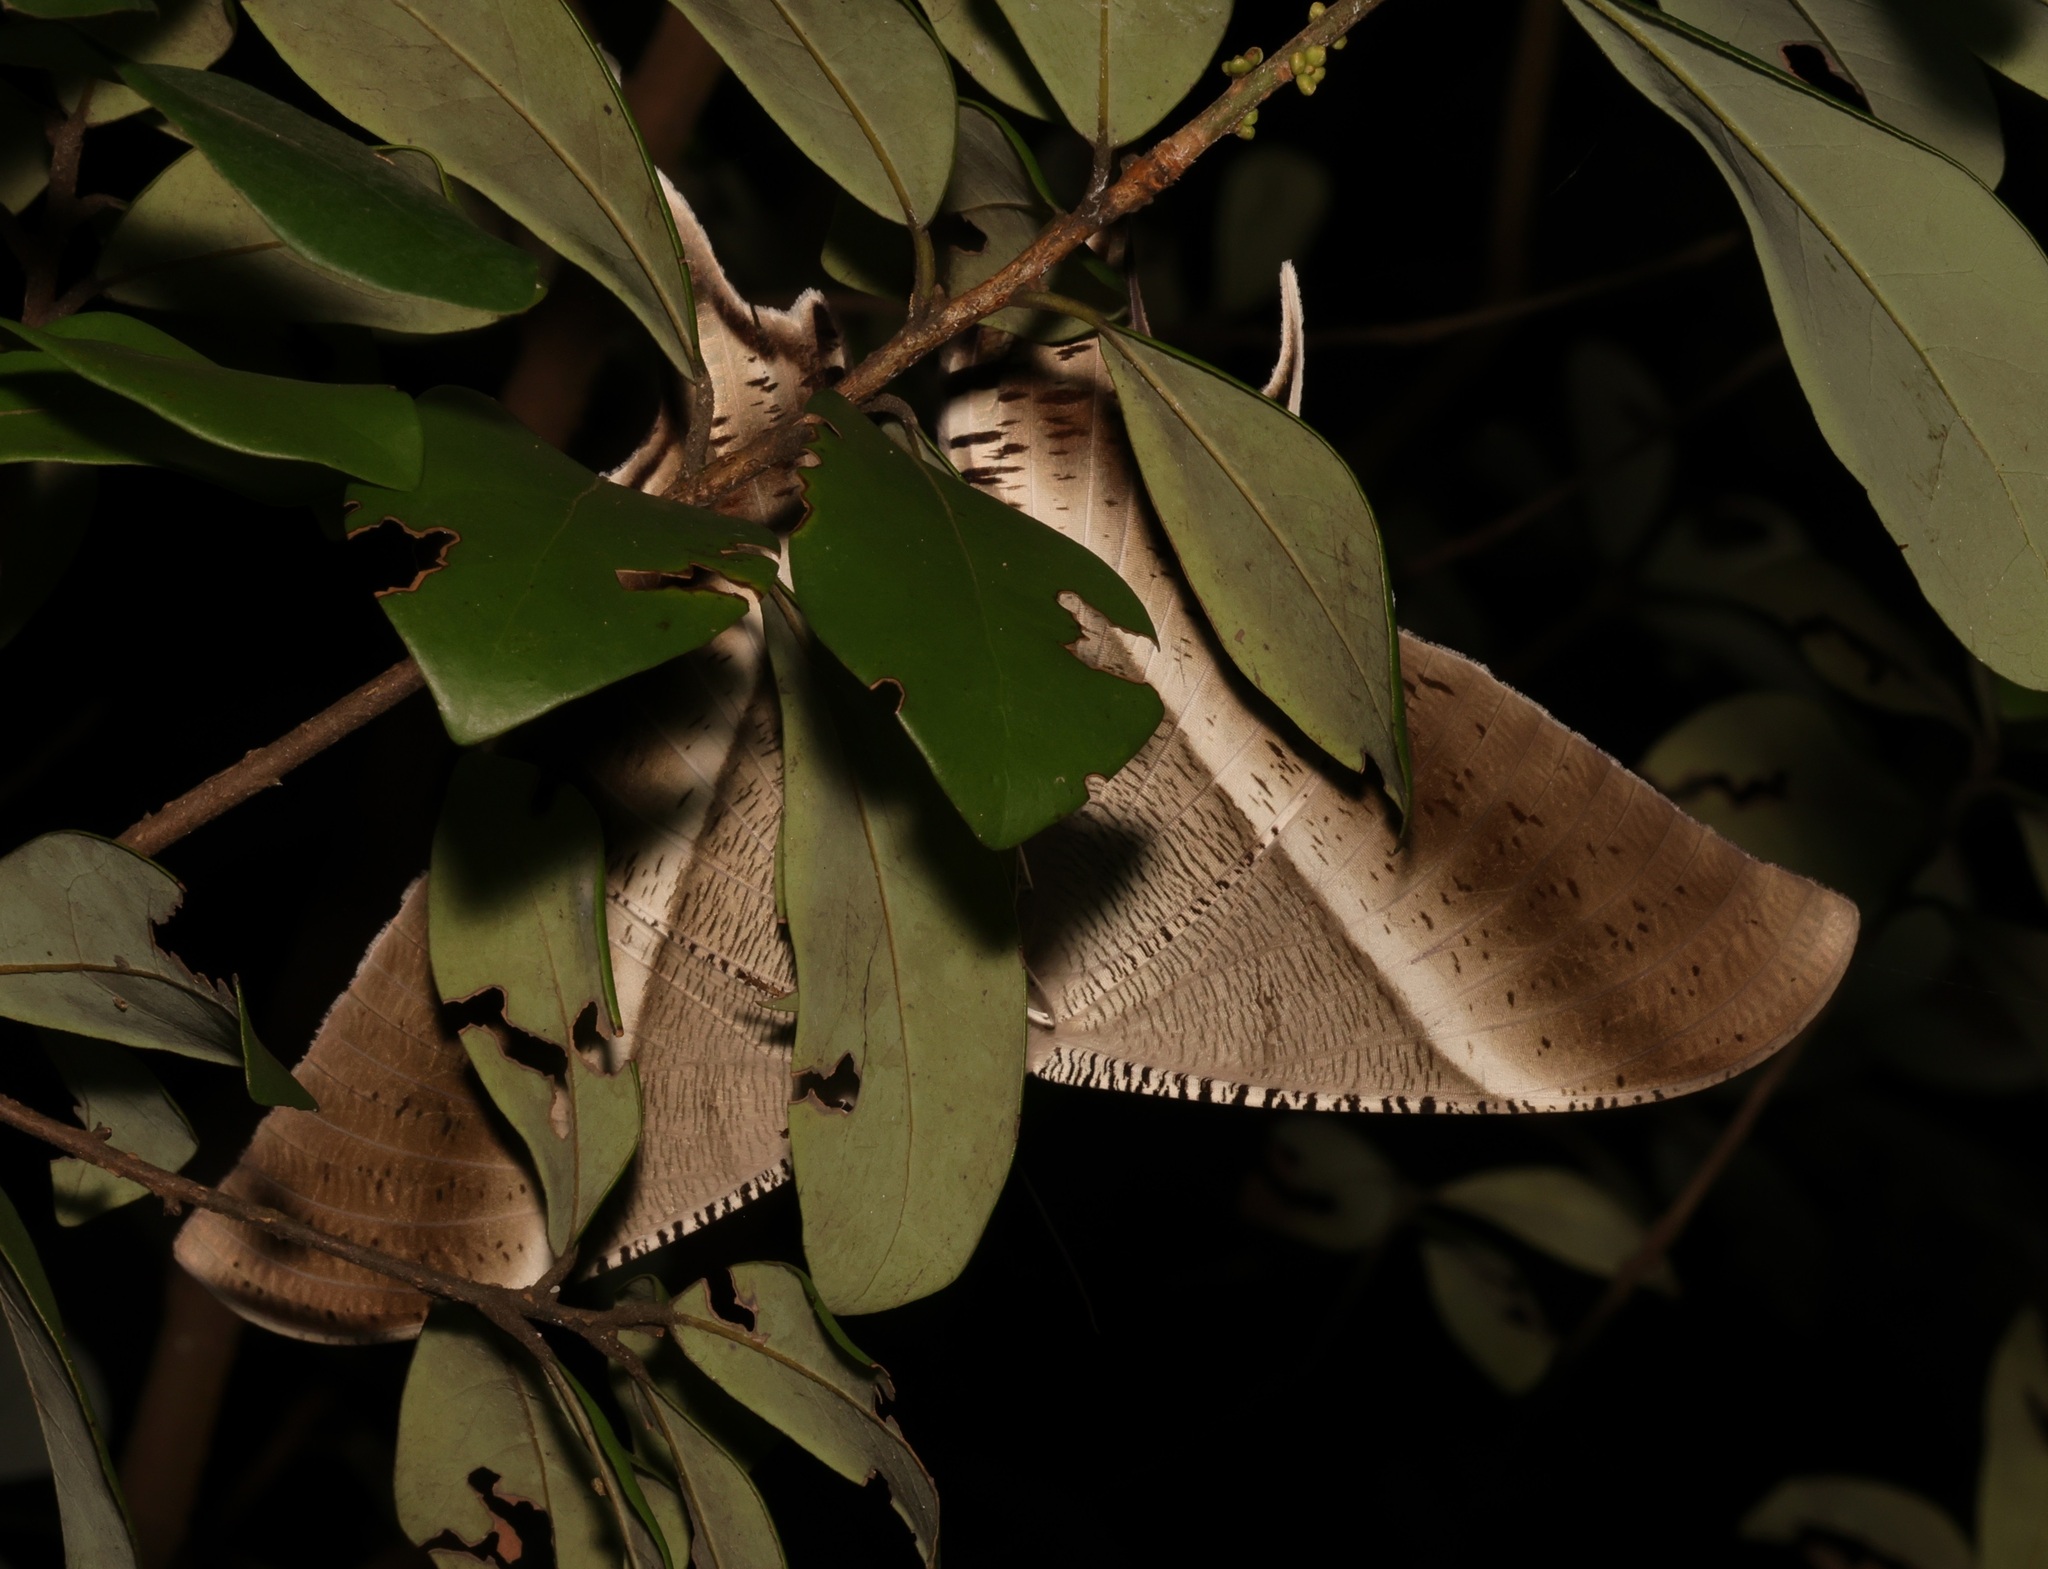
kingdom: Animalia
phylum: Arthropoda
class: Insecta
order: Lepidoptera
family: Uraniidae
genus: Lyssa
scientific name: Lyssa zampa
